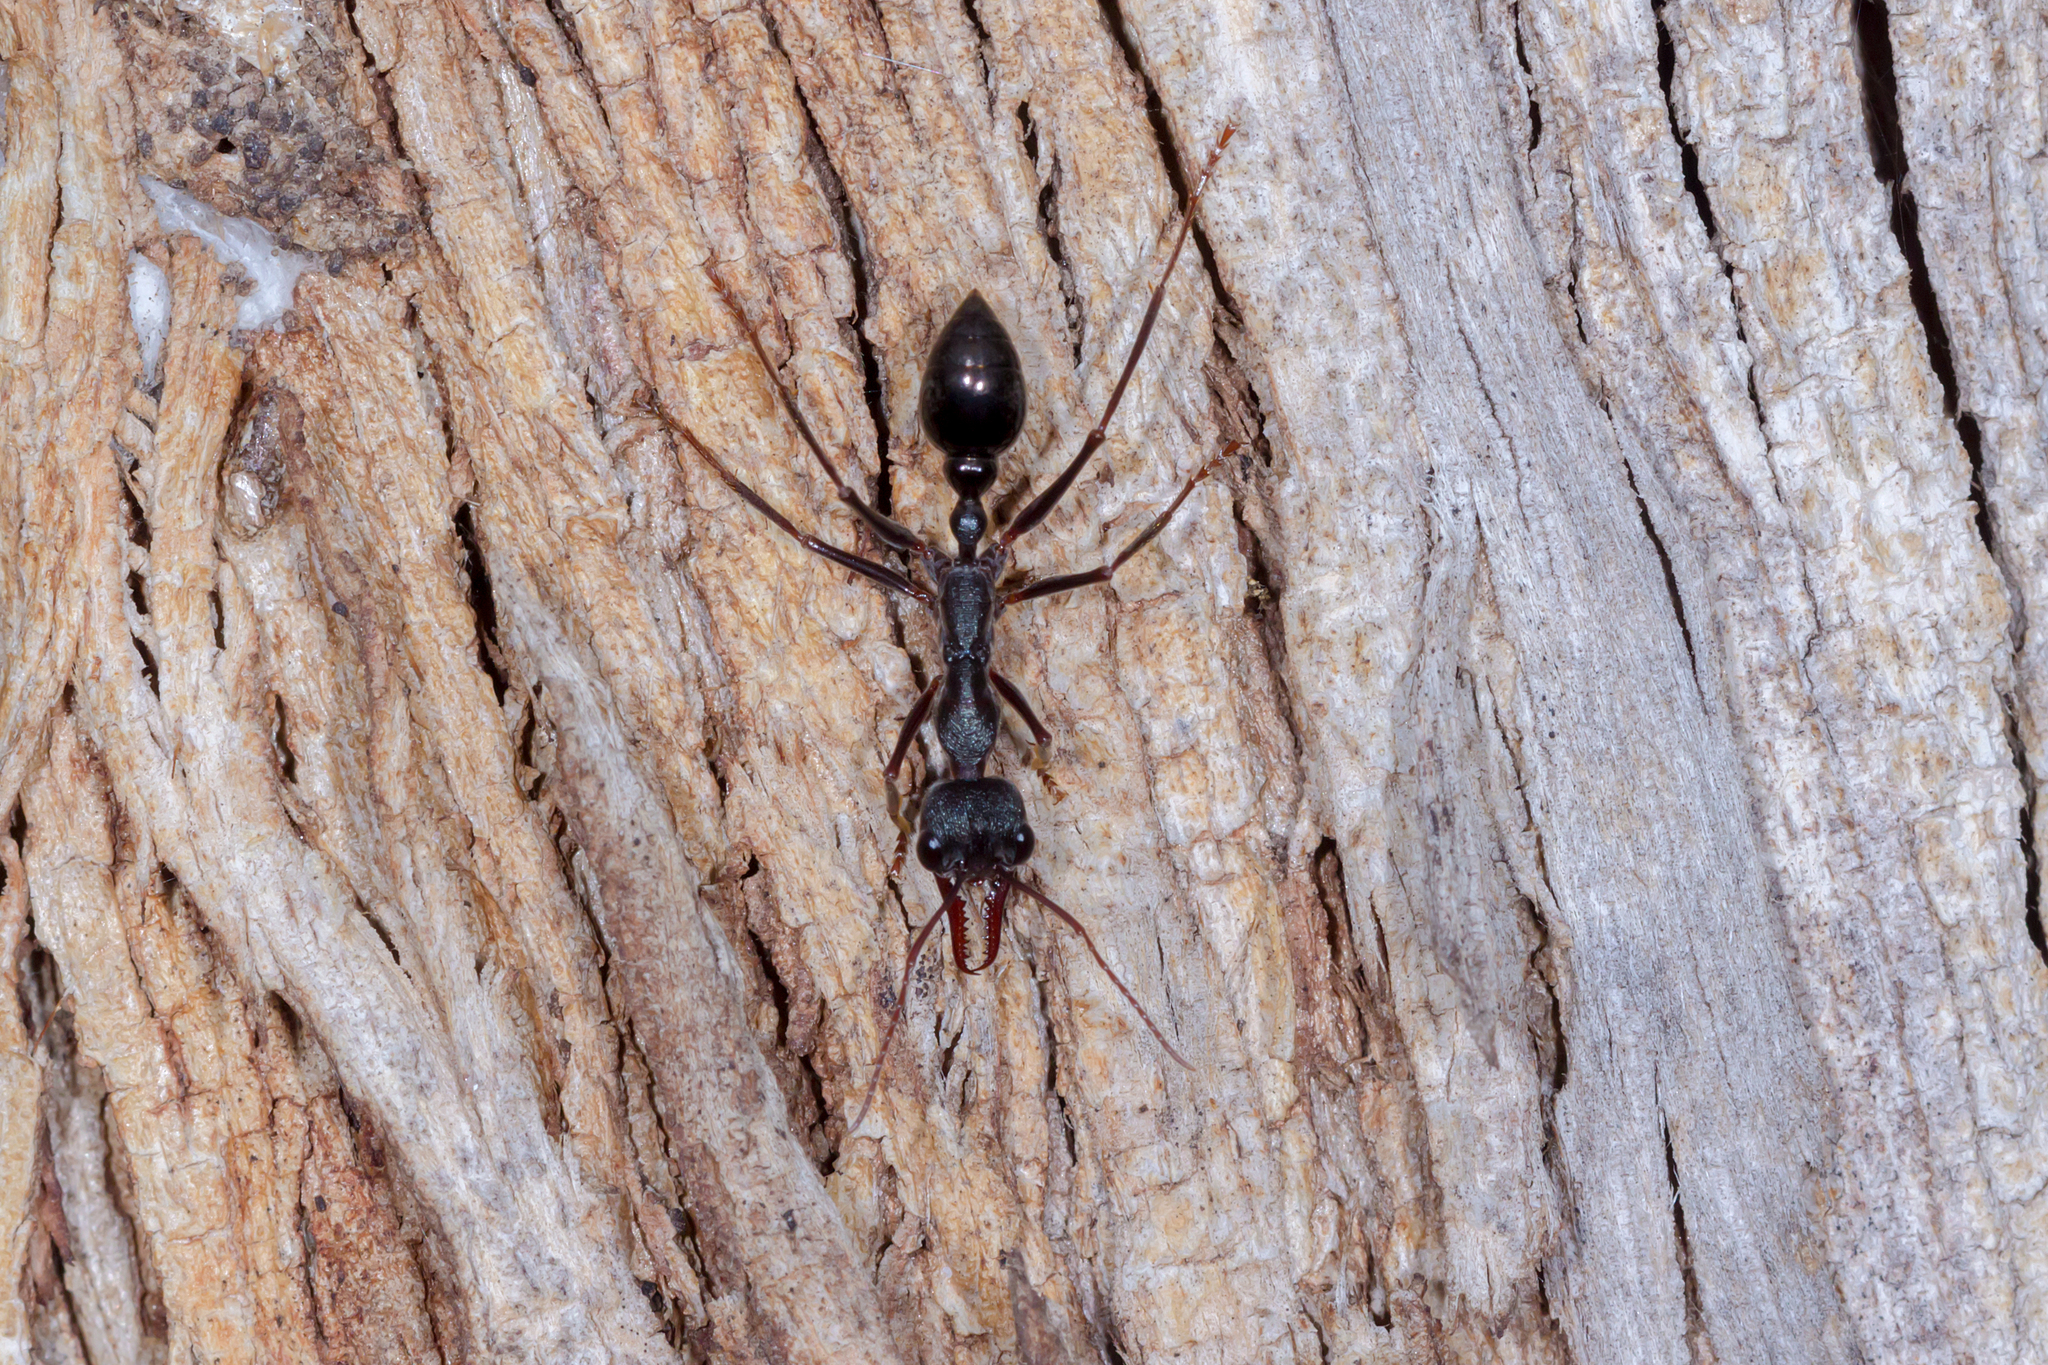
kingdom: Animalia
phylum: Arthropoda
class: Insecta
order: Hymenoptera
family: Formicidae
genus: Myrmecia
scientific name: Myrmecia pyriformis
